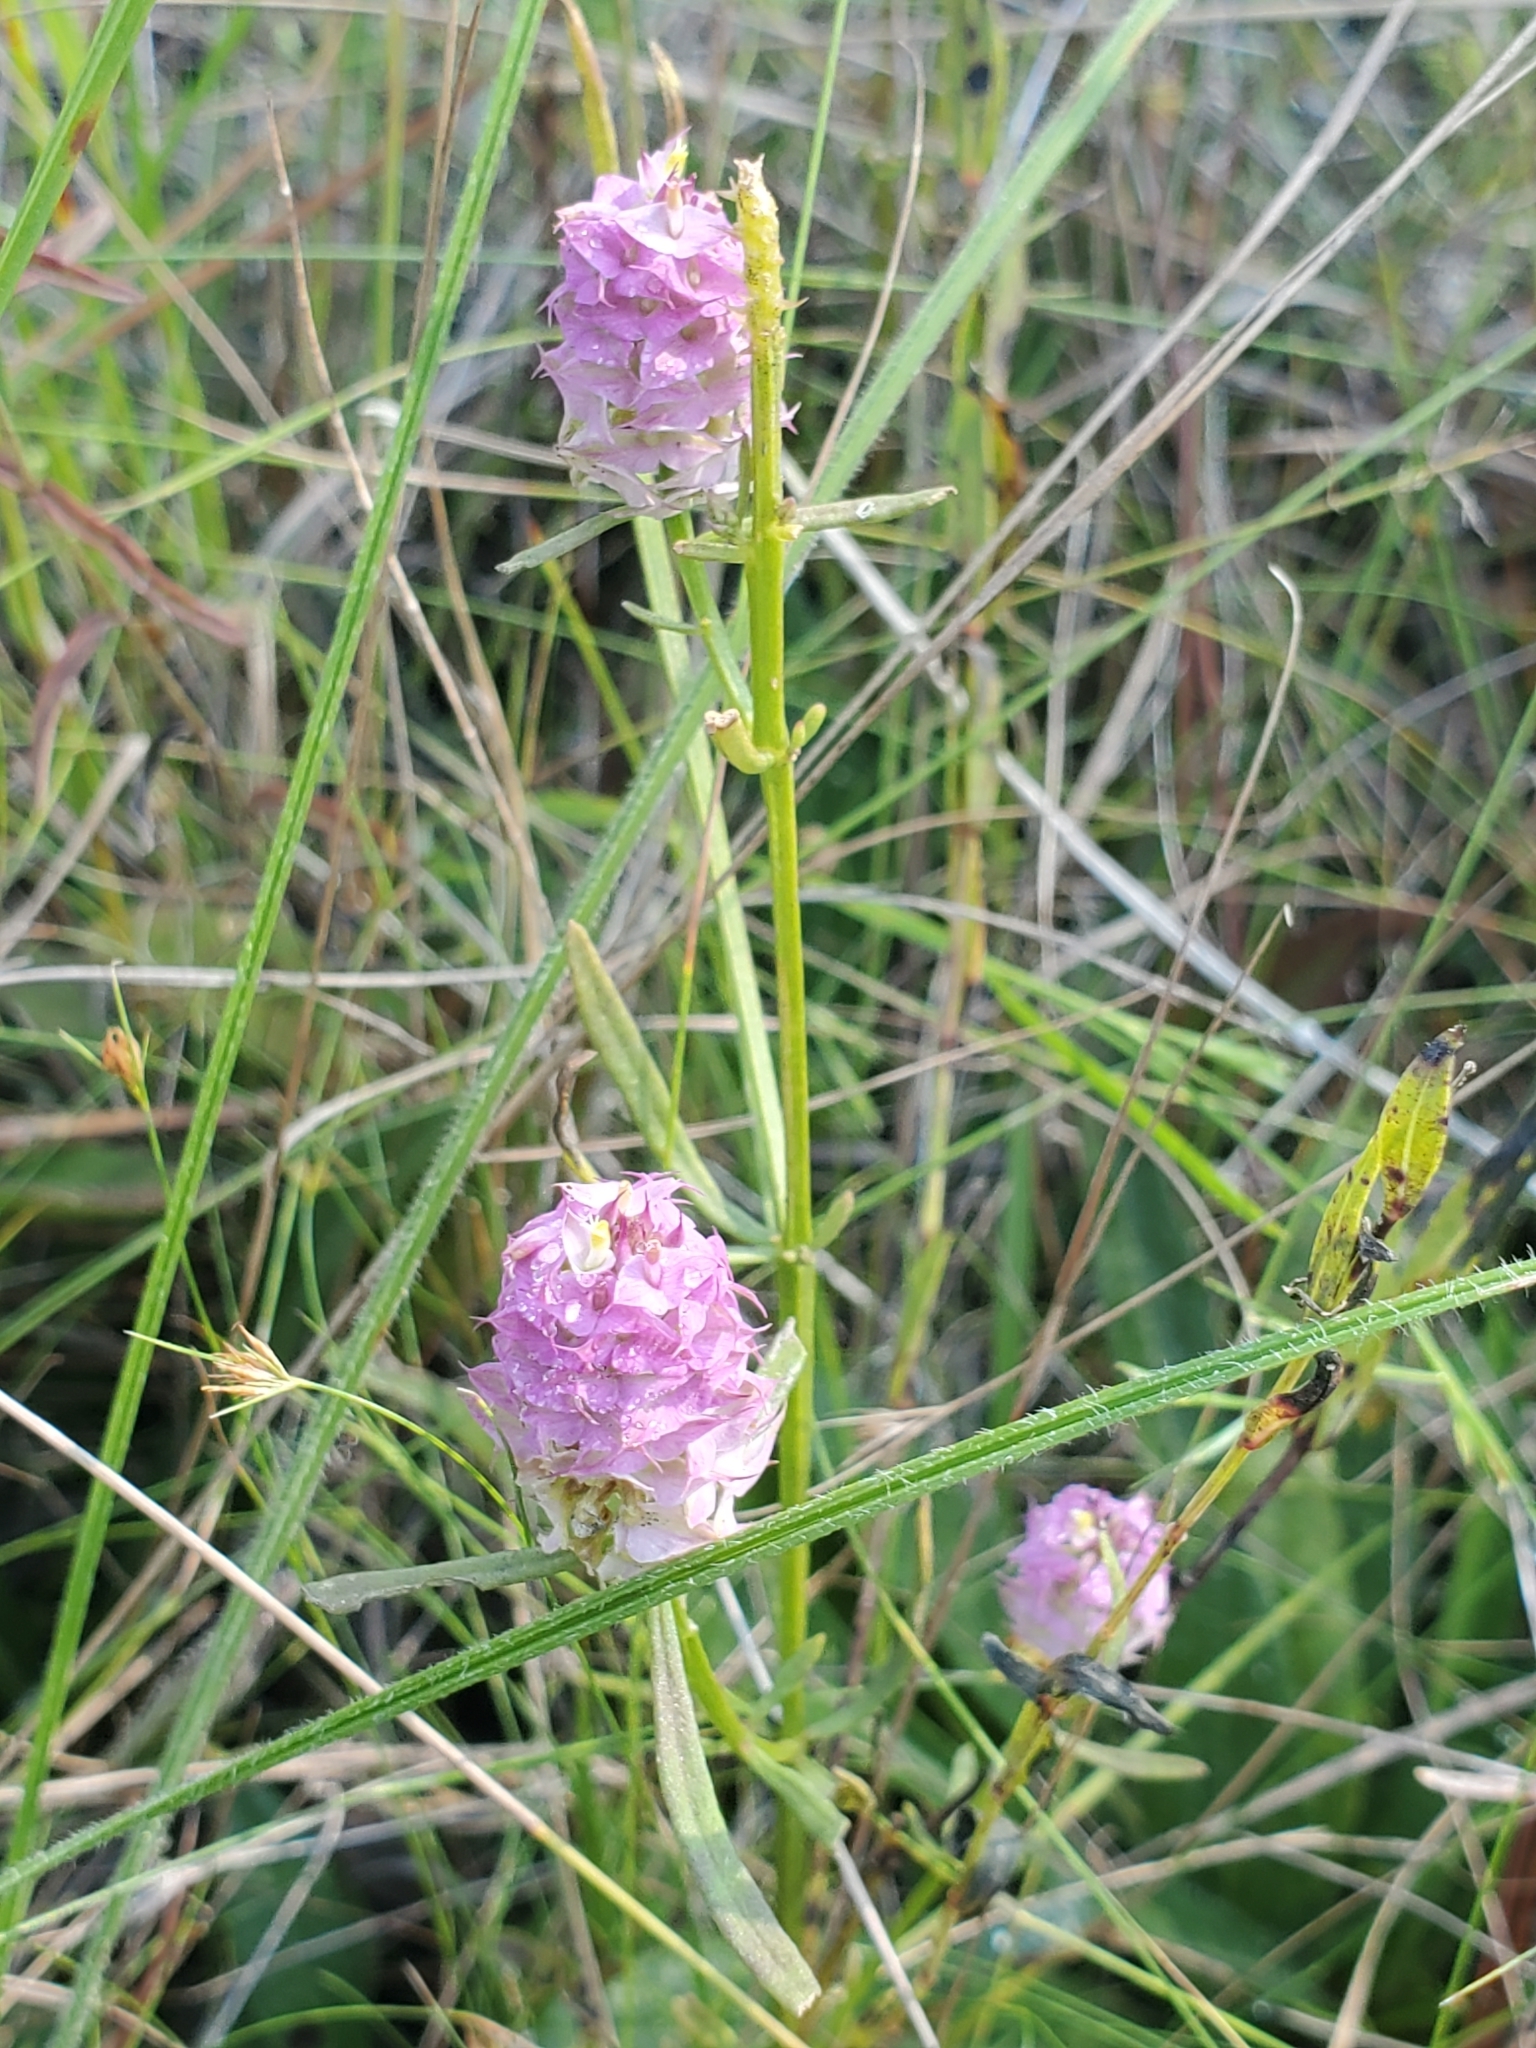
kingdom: Plantae
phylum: Tracheophyta
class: Magnoliopsida
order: Fabales
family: Polygalaceae
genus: Polygala
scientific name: Polygala cruciata
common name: Drumheads
